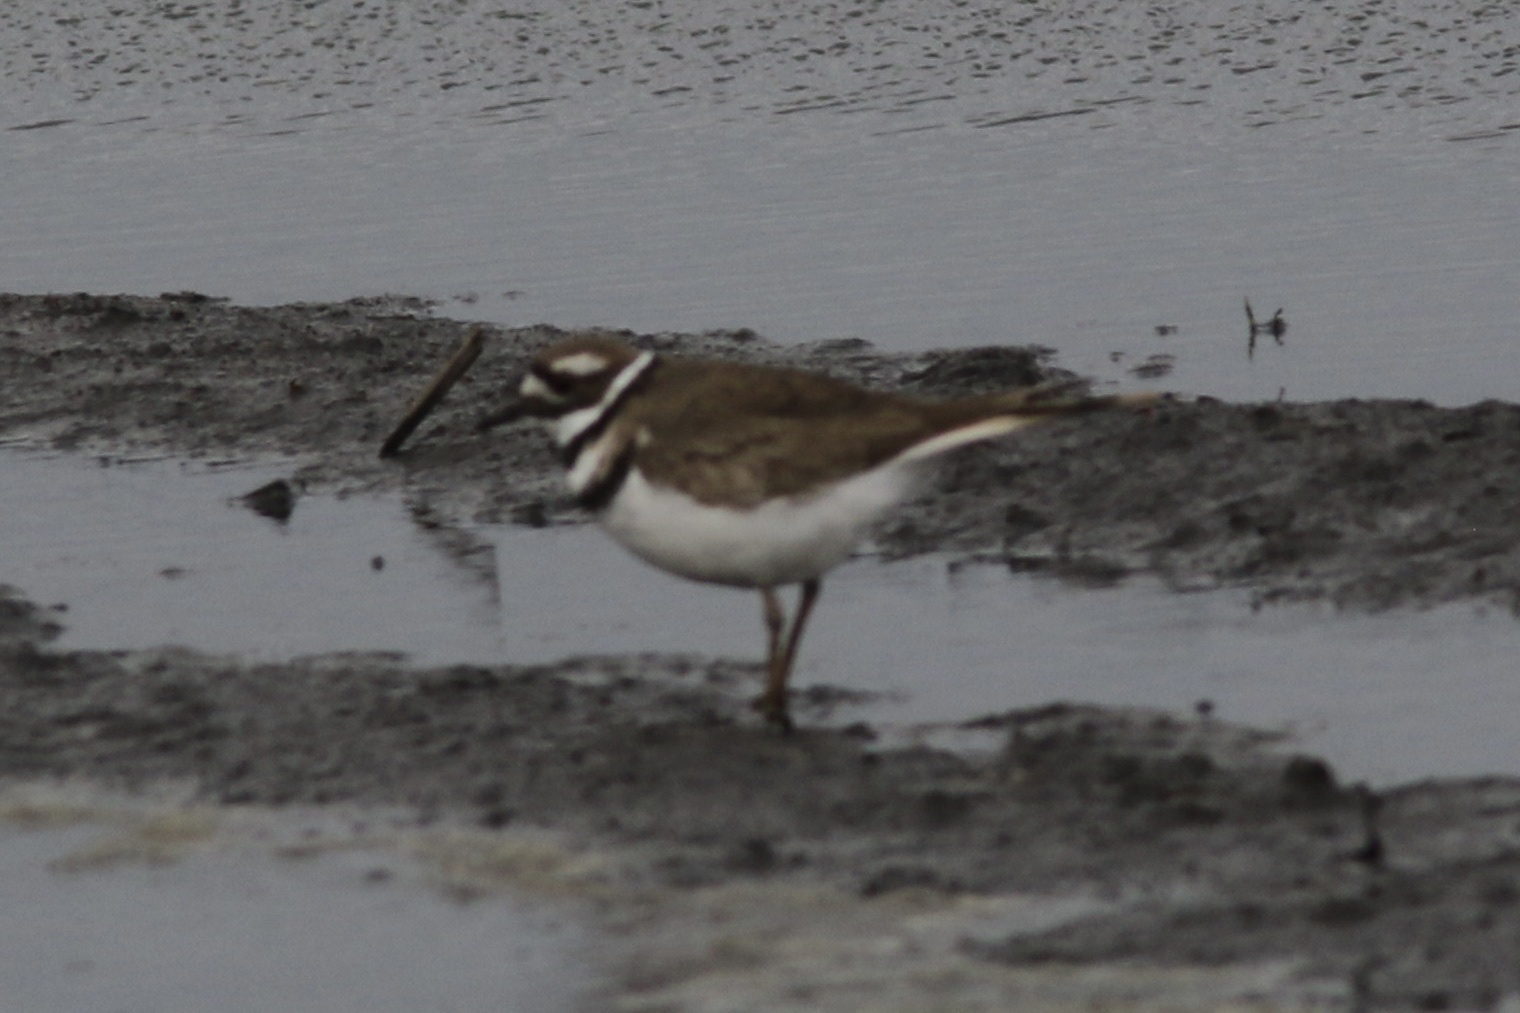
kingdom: Animalia
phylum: Chordata
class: Aves
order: Charadriiformes
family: Charadriidae
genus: Charadrius
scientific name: Charadrius vociferus
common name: Killdeer
